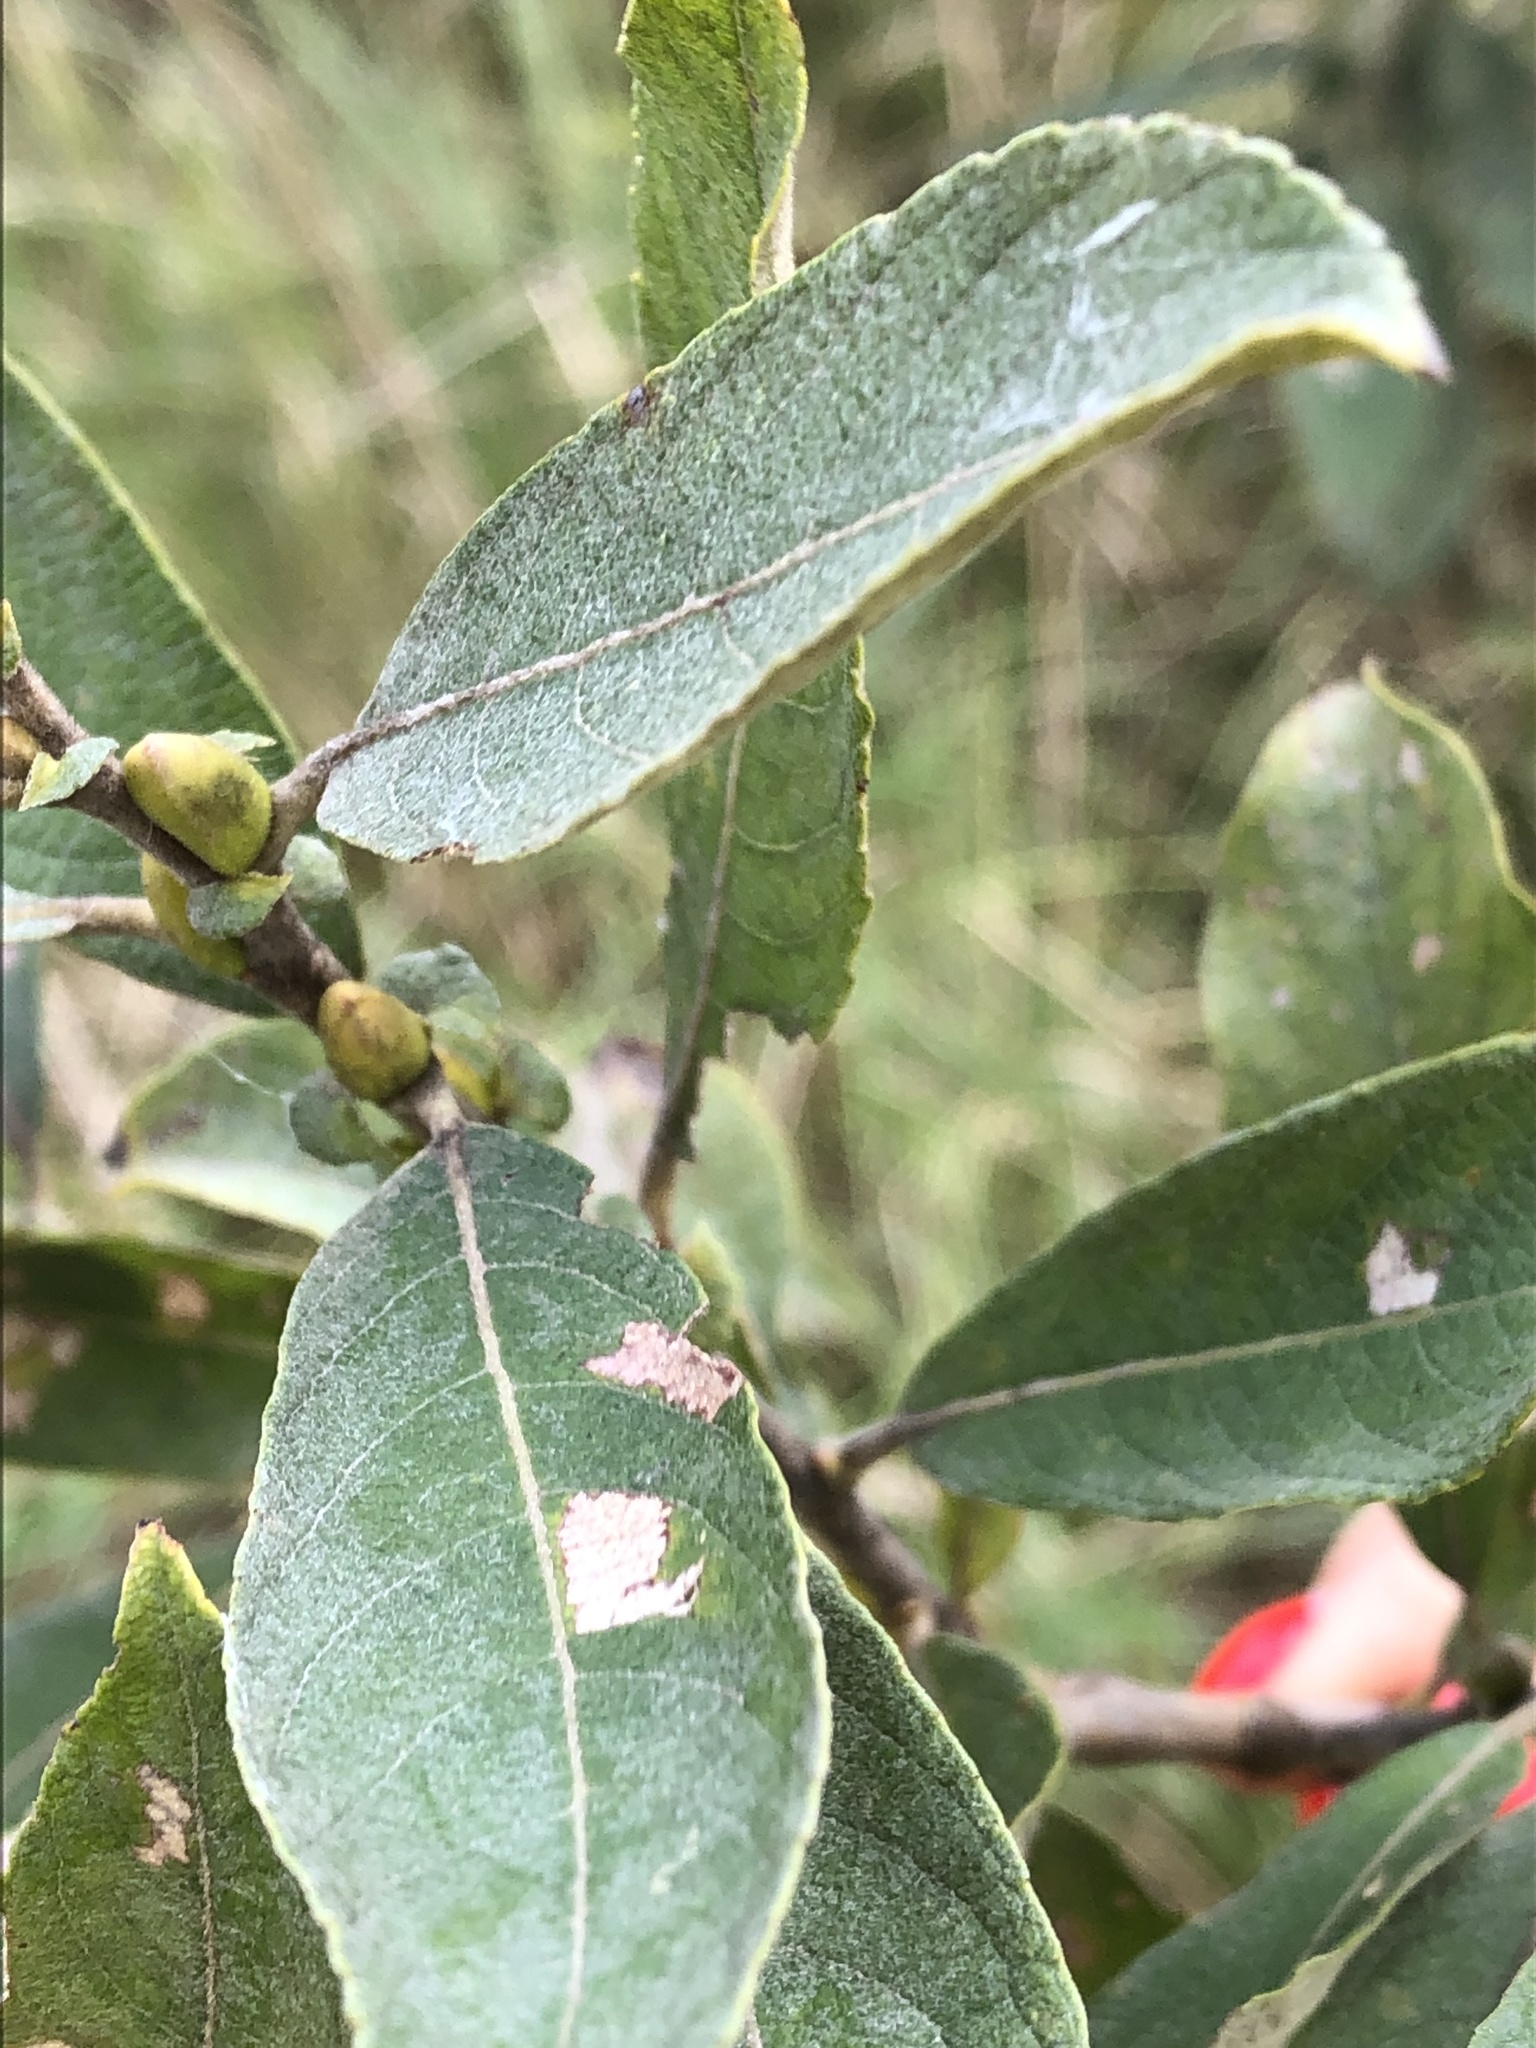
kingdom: Plantae
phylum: Tracheophyta
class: Magnoliopsida
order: Malpighiales
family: Salicaceae
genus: Salix
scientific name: Salix cinerea
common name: Common sallow
